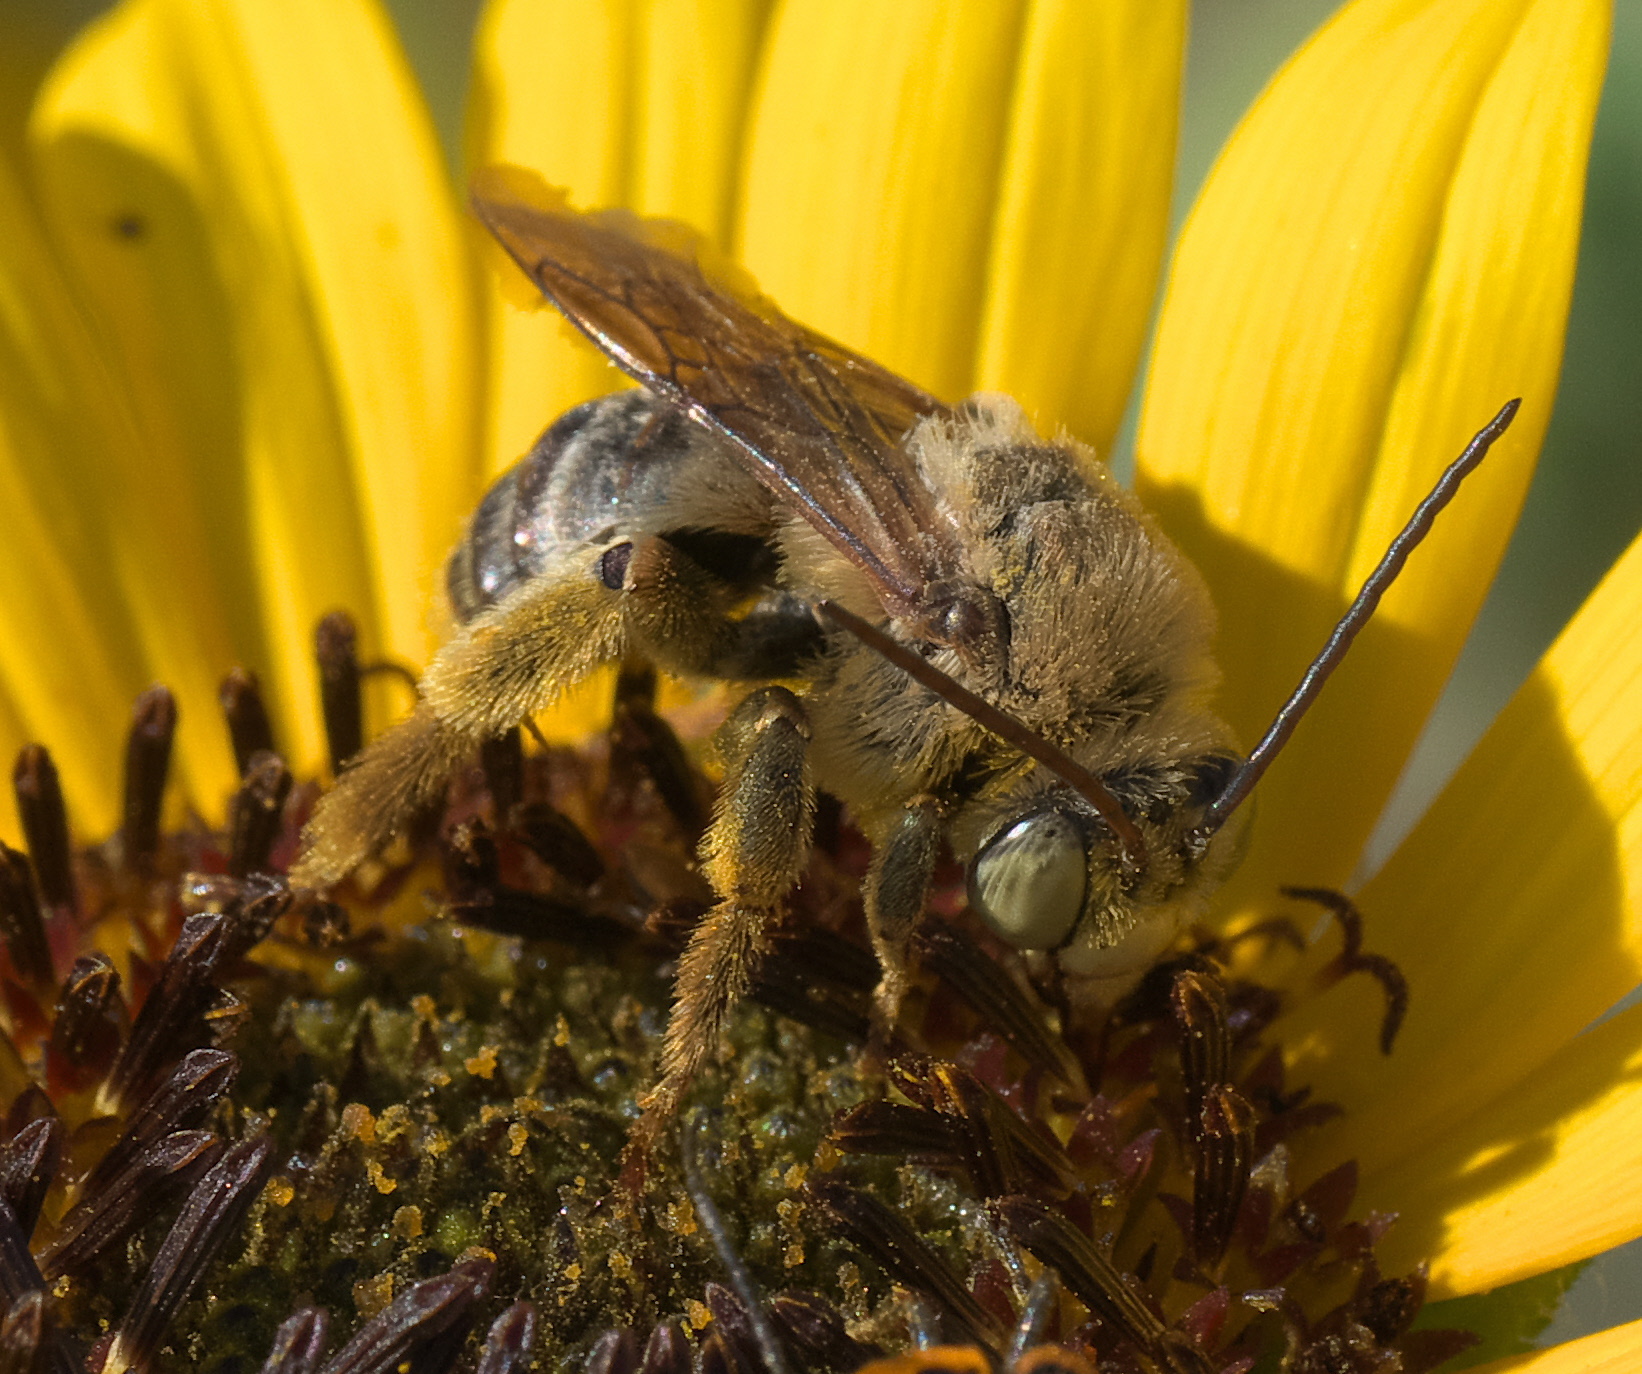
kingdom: Animalia
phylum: Arthropoda
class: Insecta
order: Hymenoptera
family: Apidae
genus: Svastra
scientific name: Svastra obliqua
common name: Oblique longhorn
